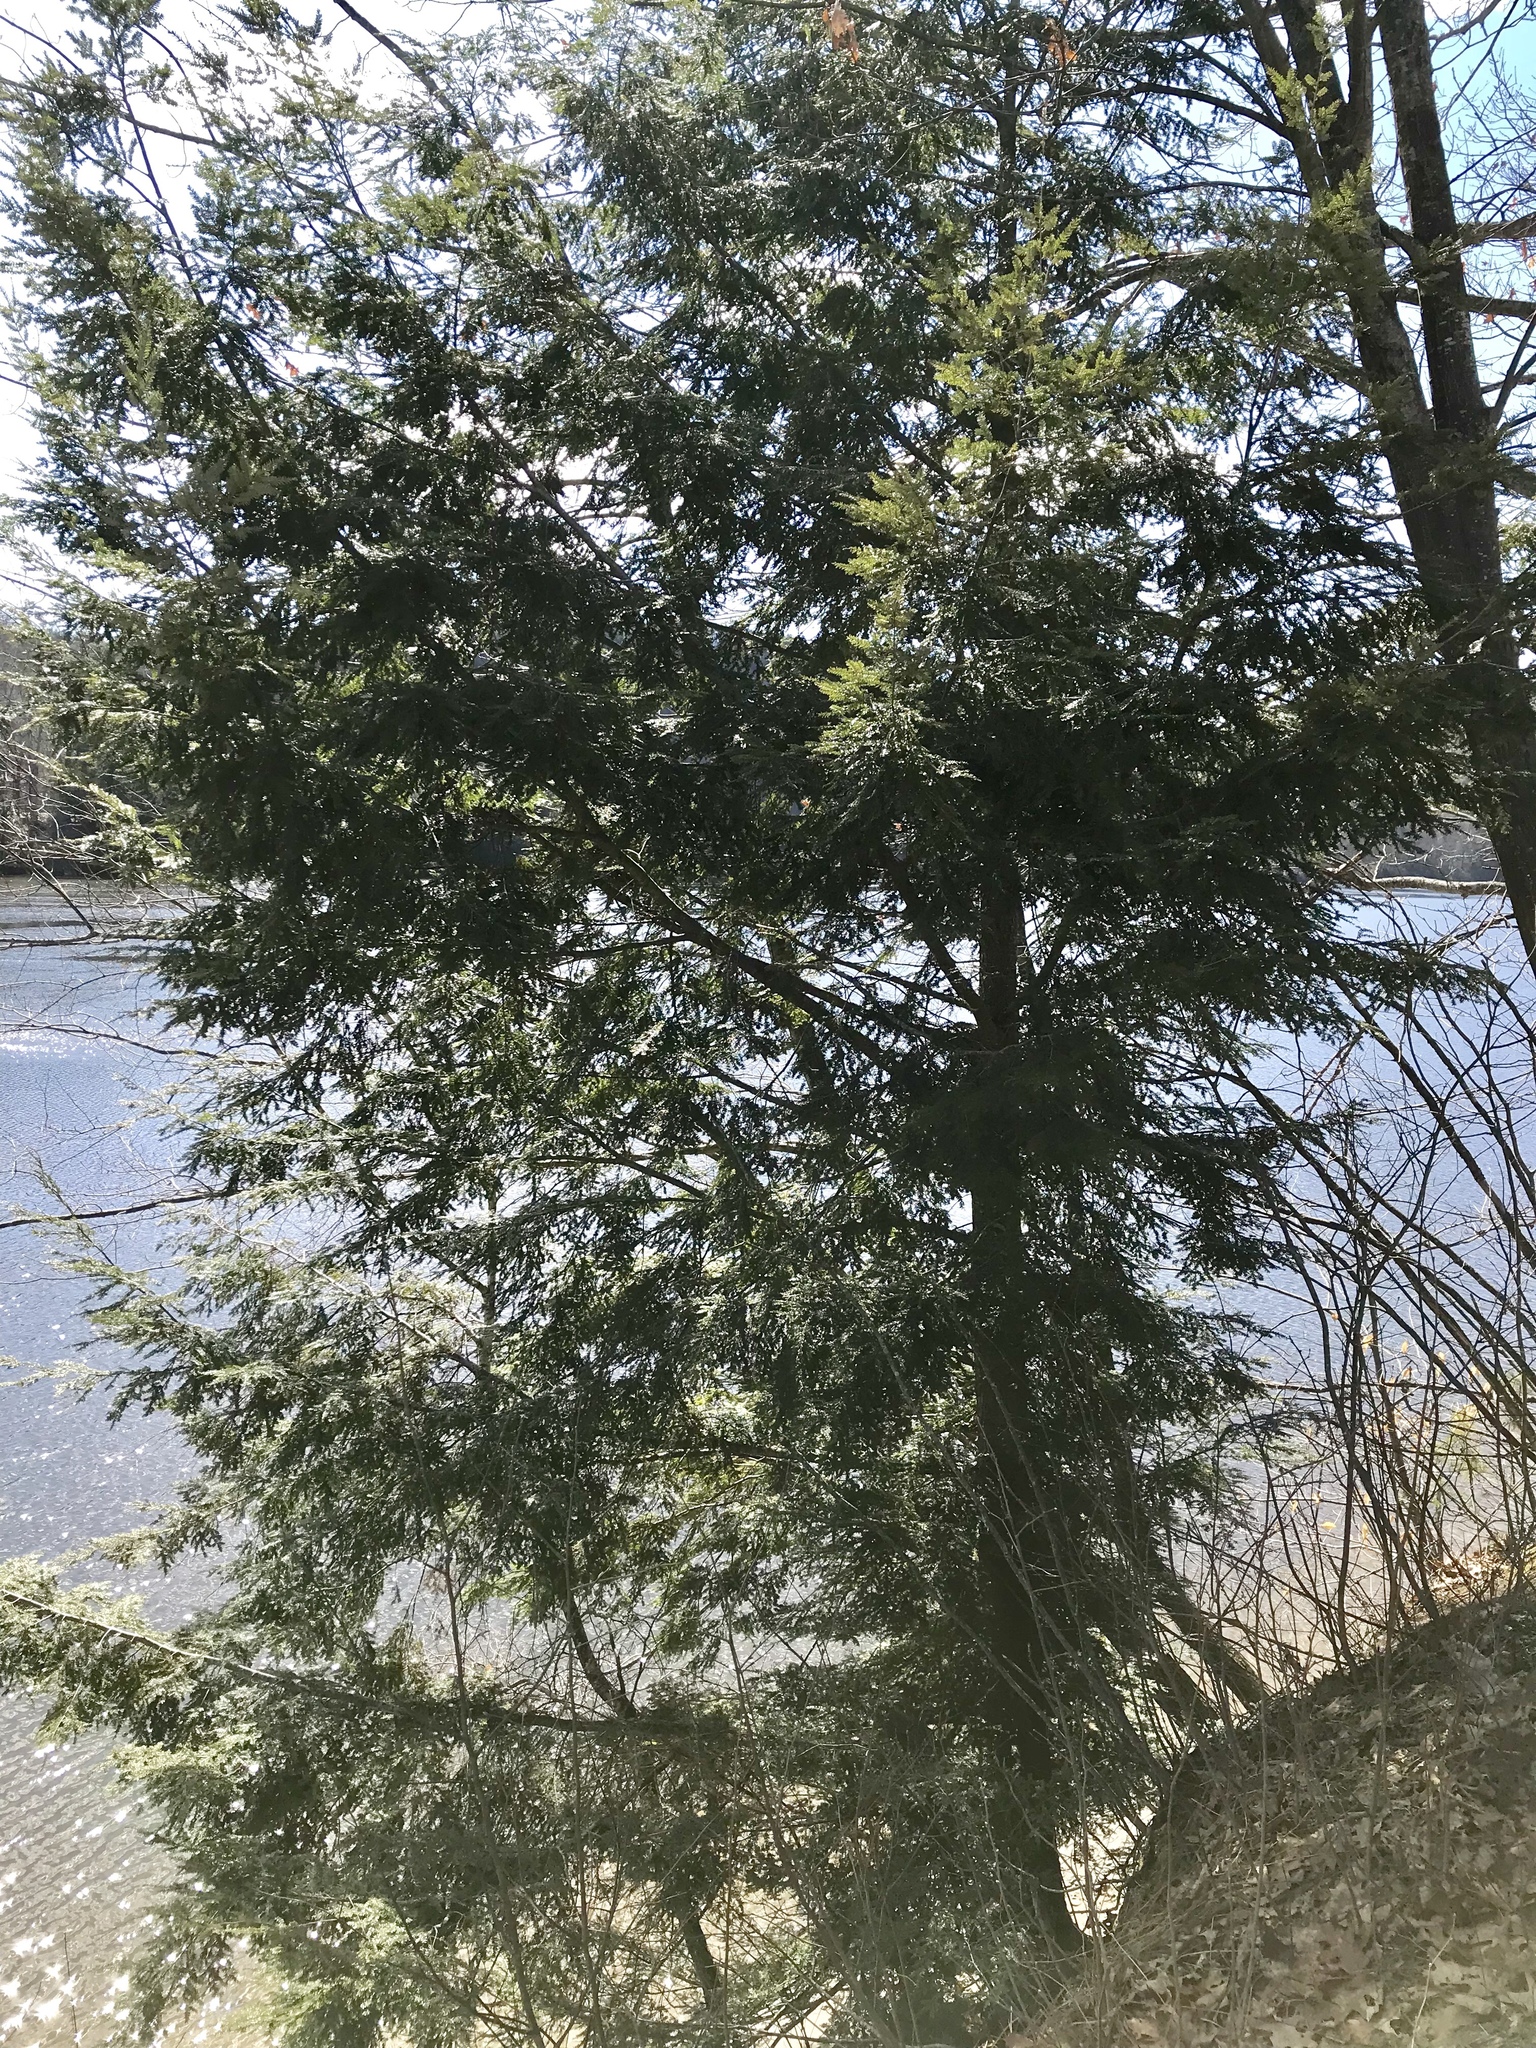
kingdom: Plantae
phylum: Tracheophyta
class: Pinopsida
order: Pinales
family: Pinaceae
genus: Tsuga
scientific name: Tsuga canadensis
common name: Eastern hemlock
